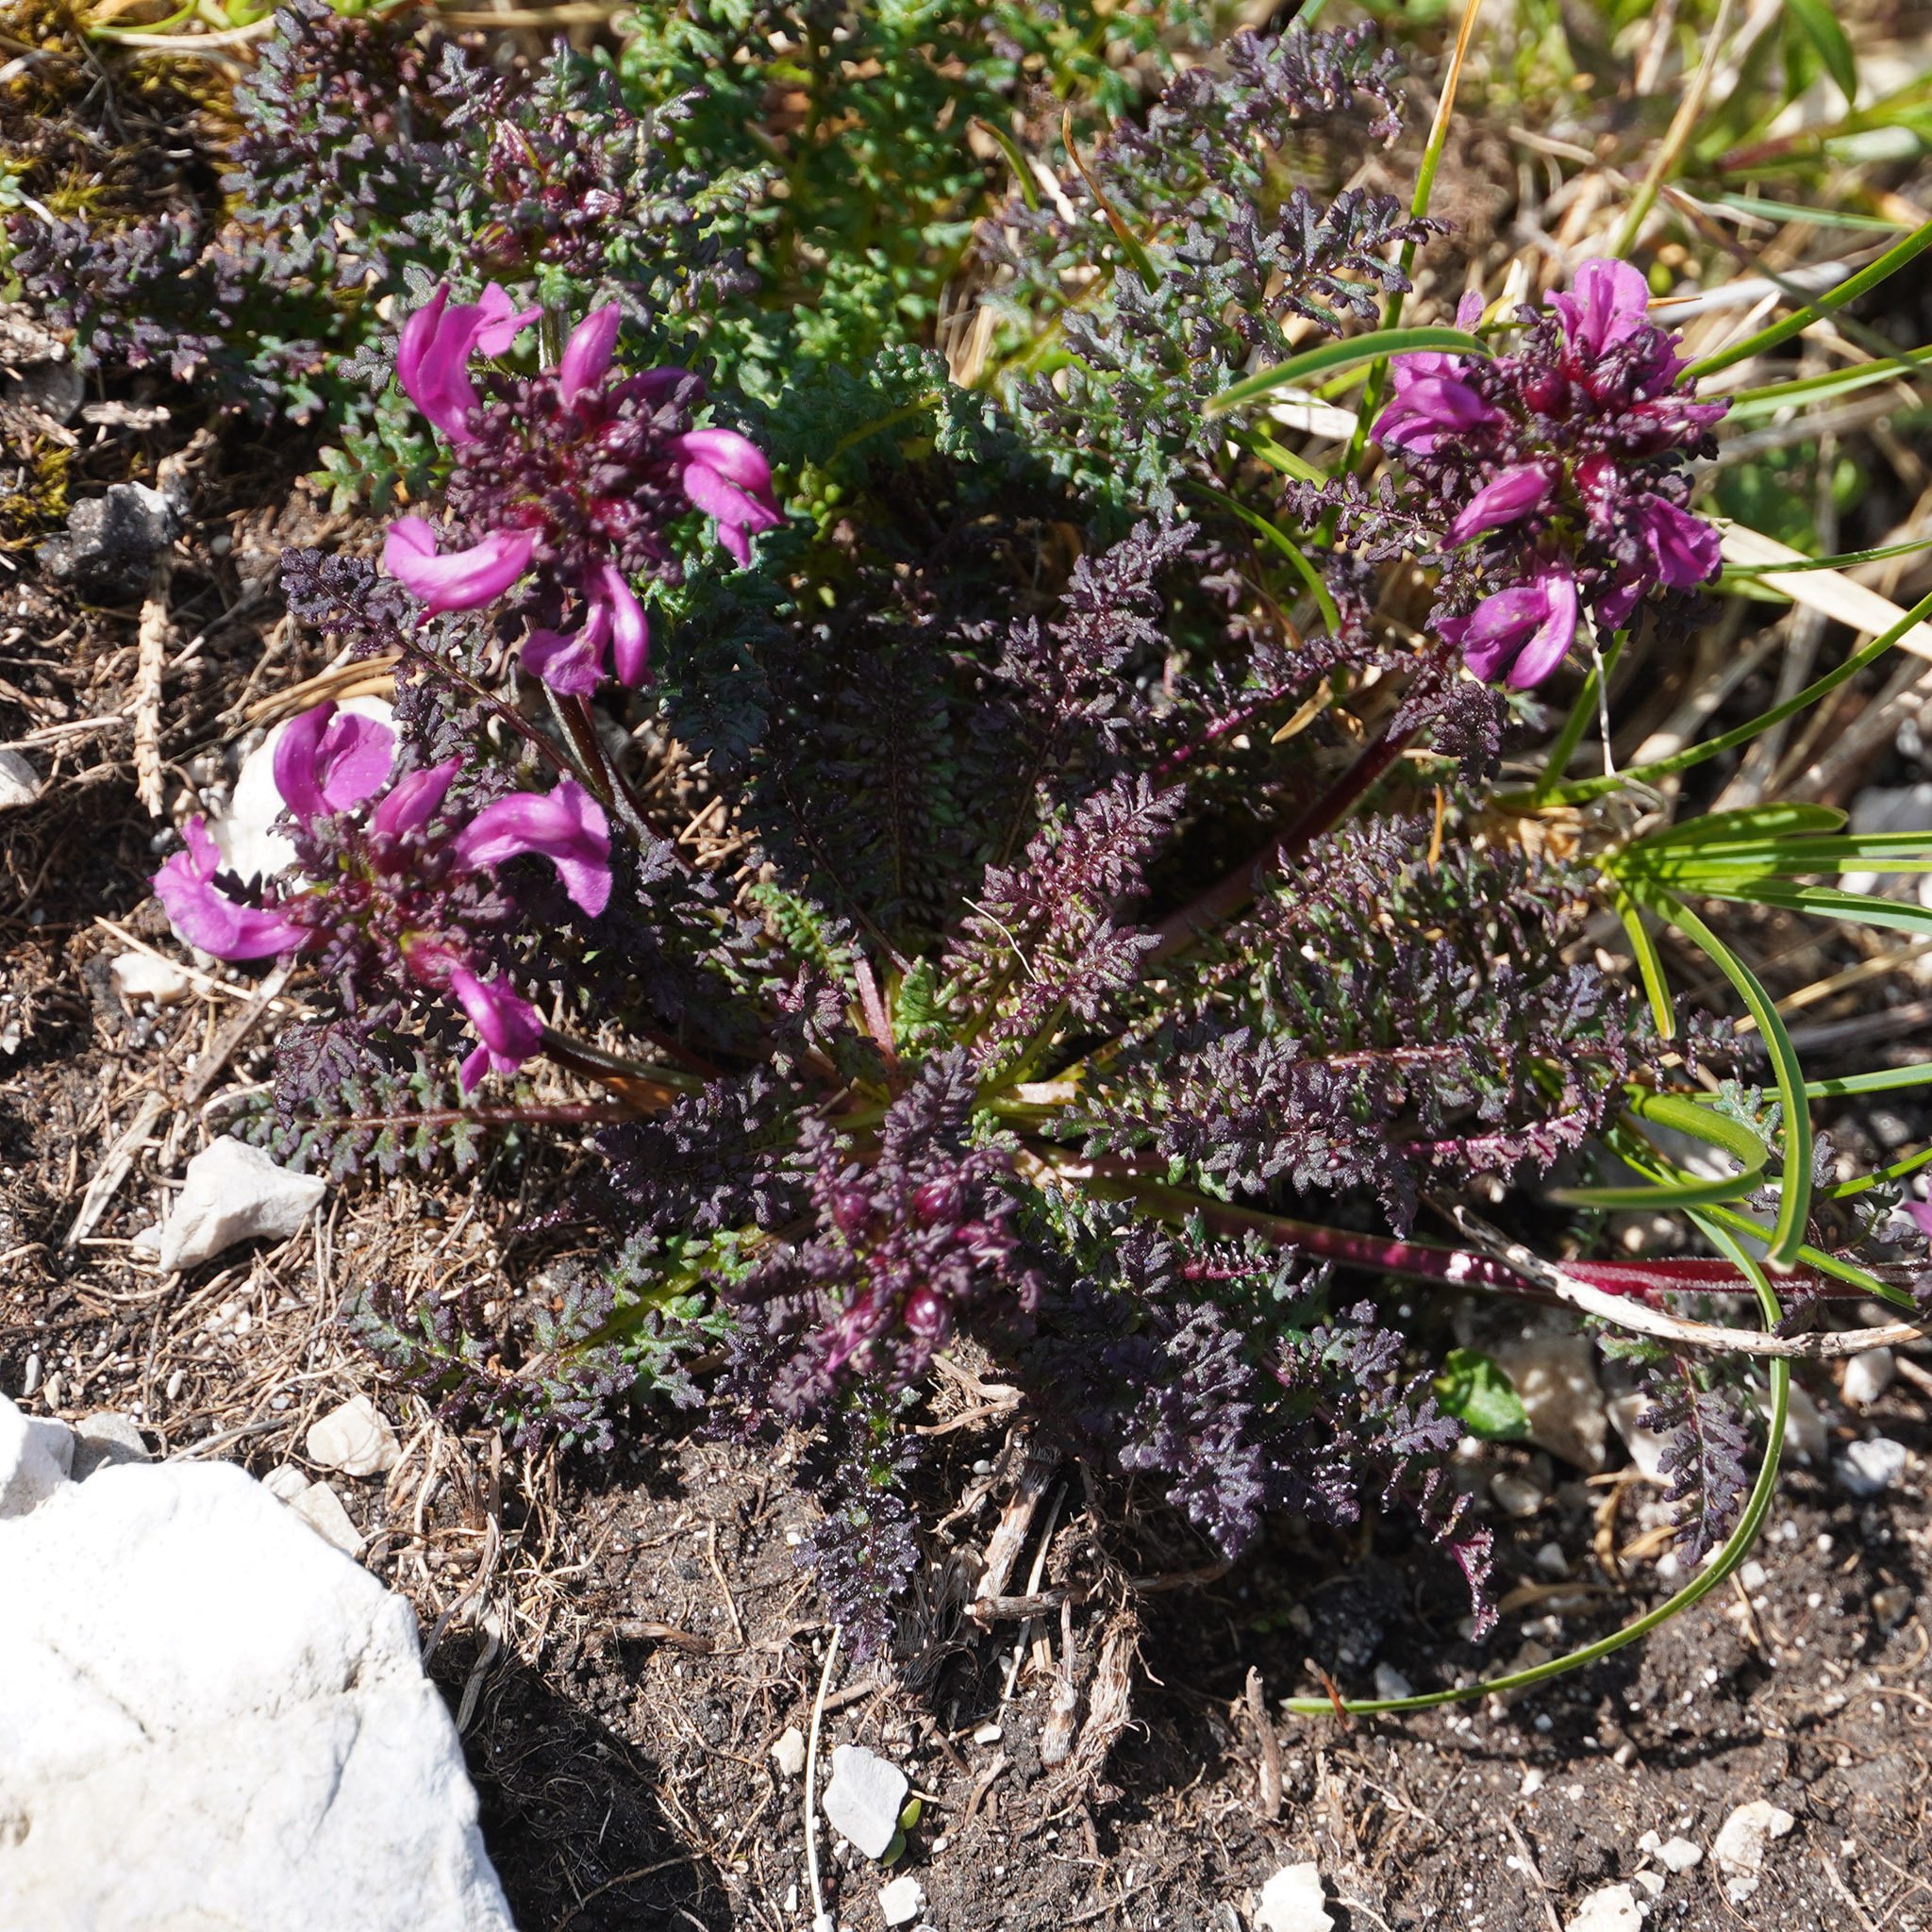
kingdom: Plantae
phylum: Tracheophyta
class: Magnoliopsida
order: Lamiales
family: Orobanchaceae
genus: Pedicularis
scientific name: Pedicularis rostratocapitata
